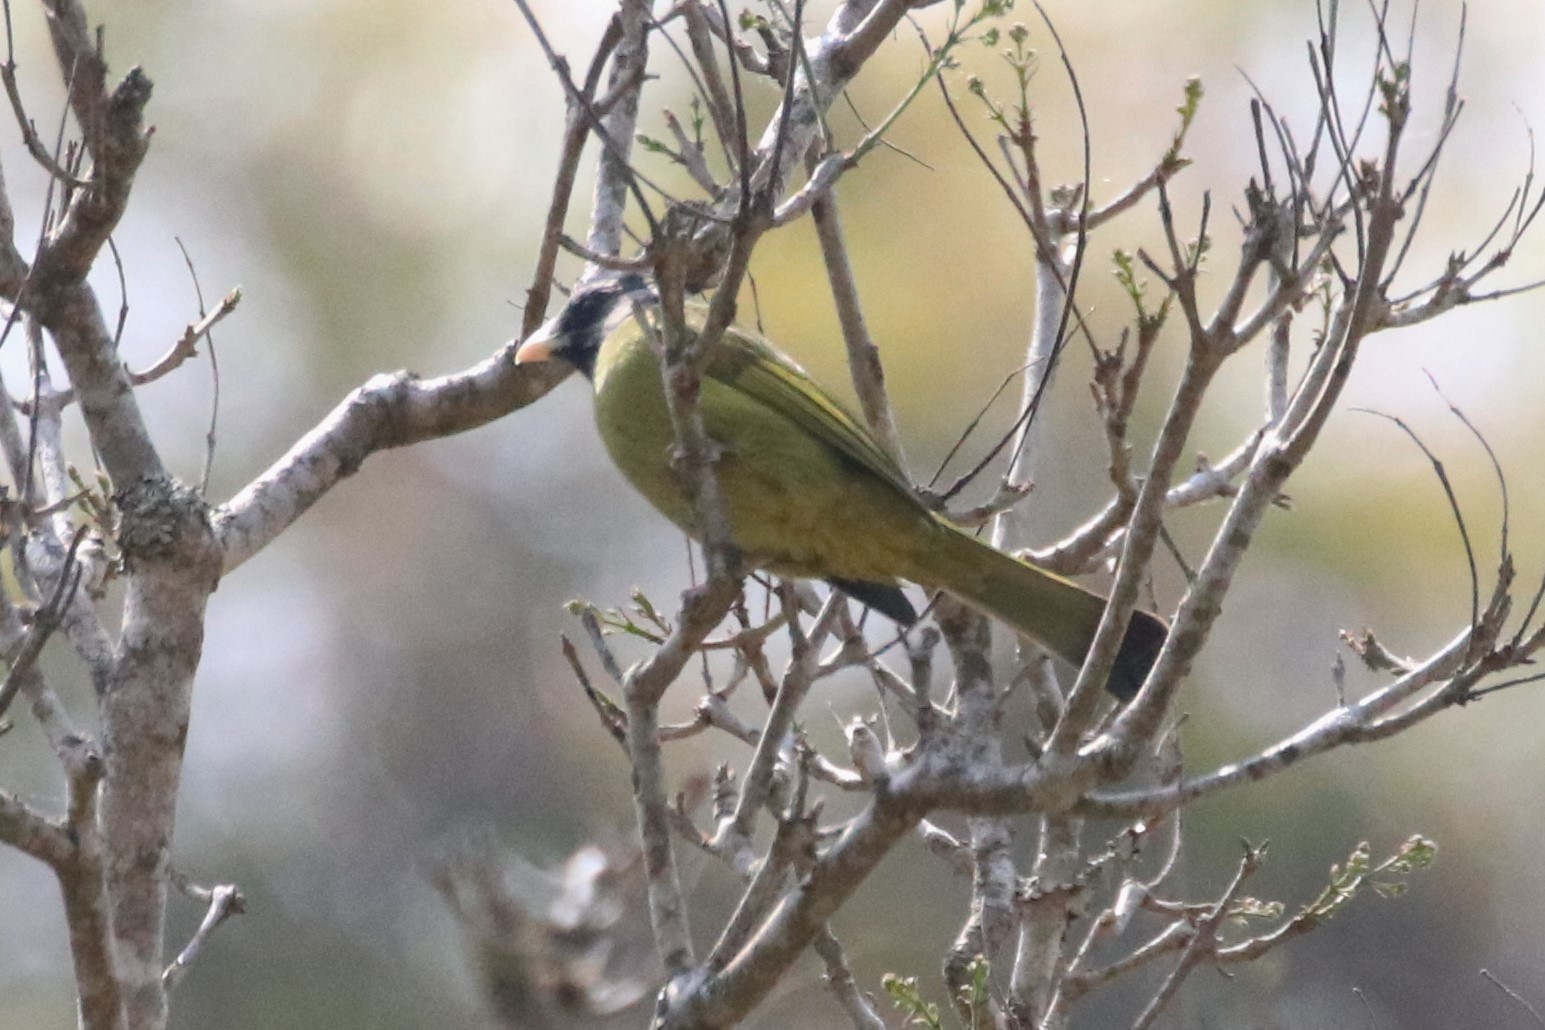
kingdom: Animalia
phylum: Chordata
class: Aves
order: Passeriformes
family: Pycnonotidae
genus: Spizixos
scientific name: Spizixos canifrons
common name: Crested finchbill
